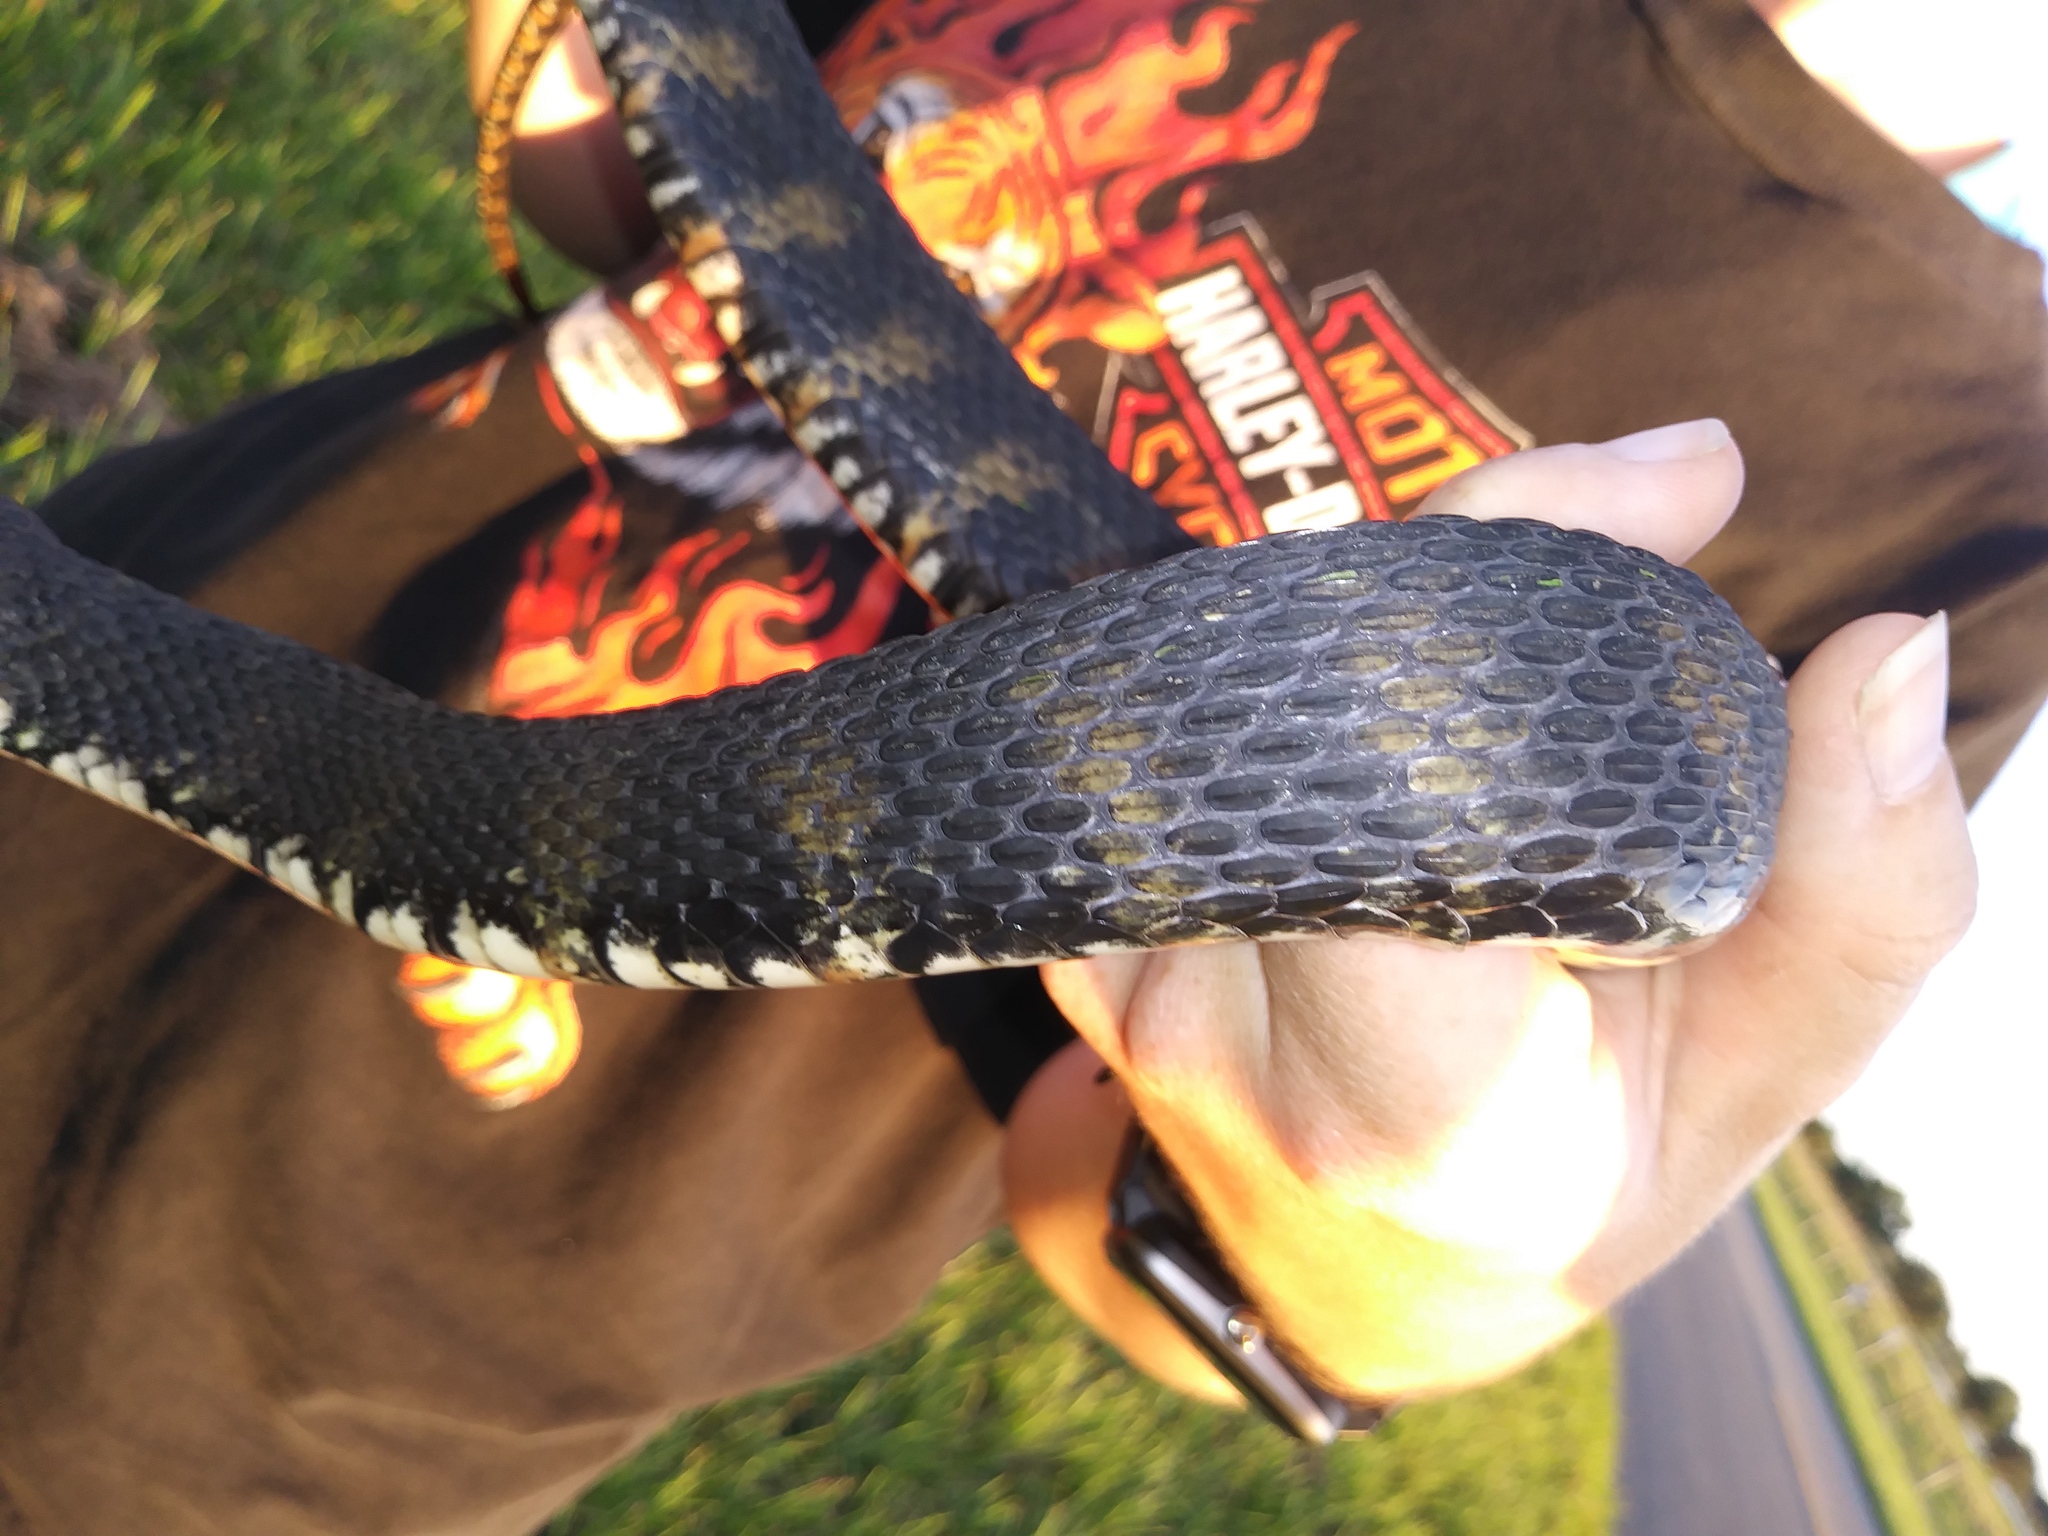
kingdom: Animalia
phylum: Chordata
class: Squamata
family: Colubridae
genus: Nerodia
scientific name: Nerodia fasciata
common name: Southern water snake
